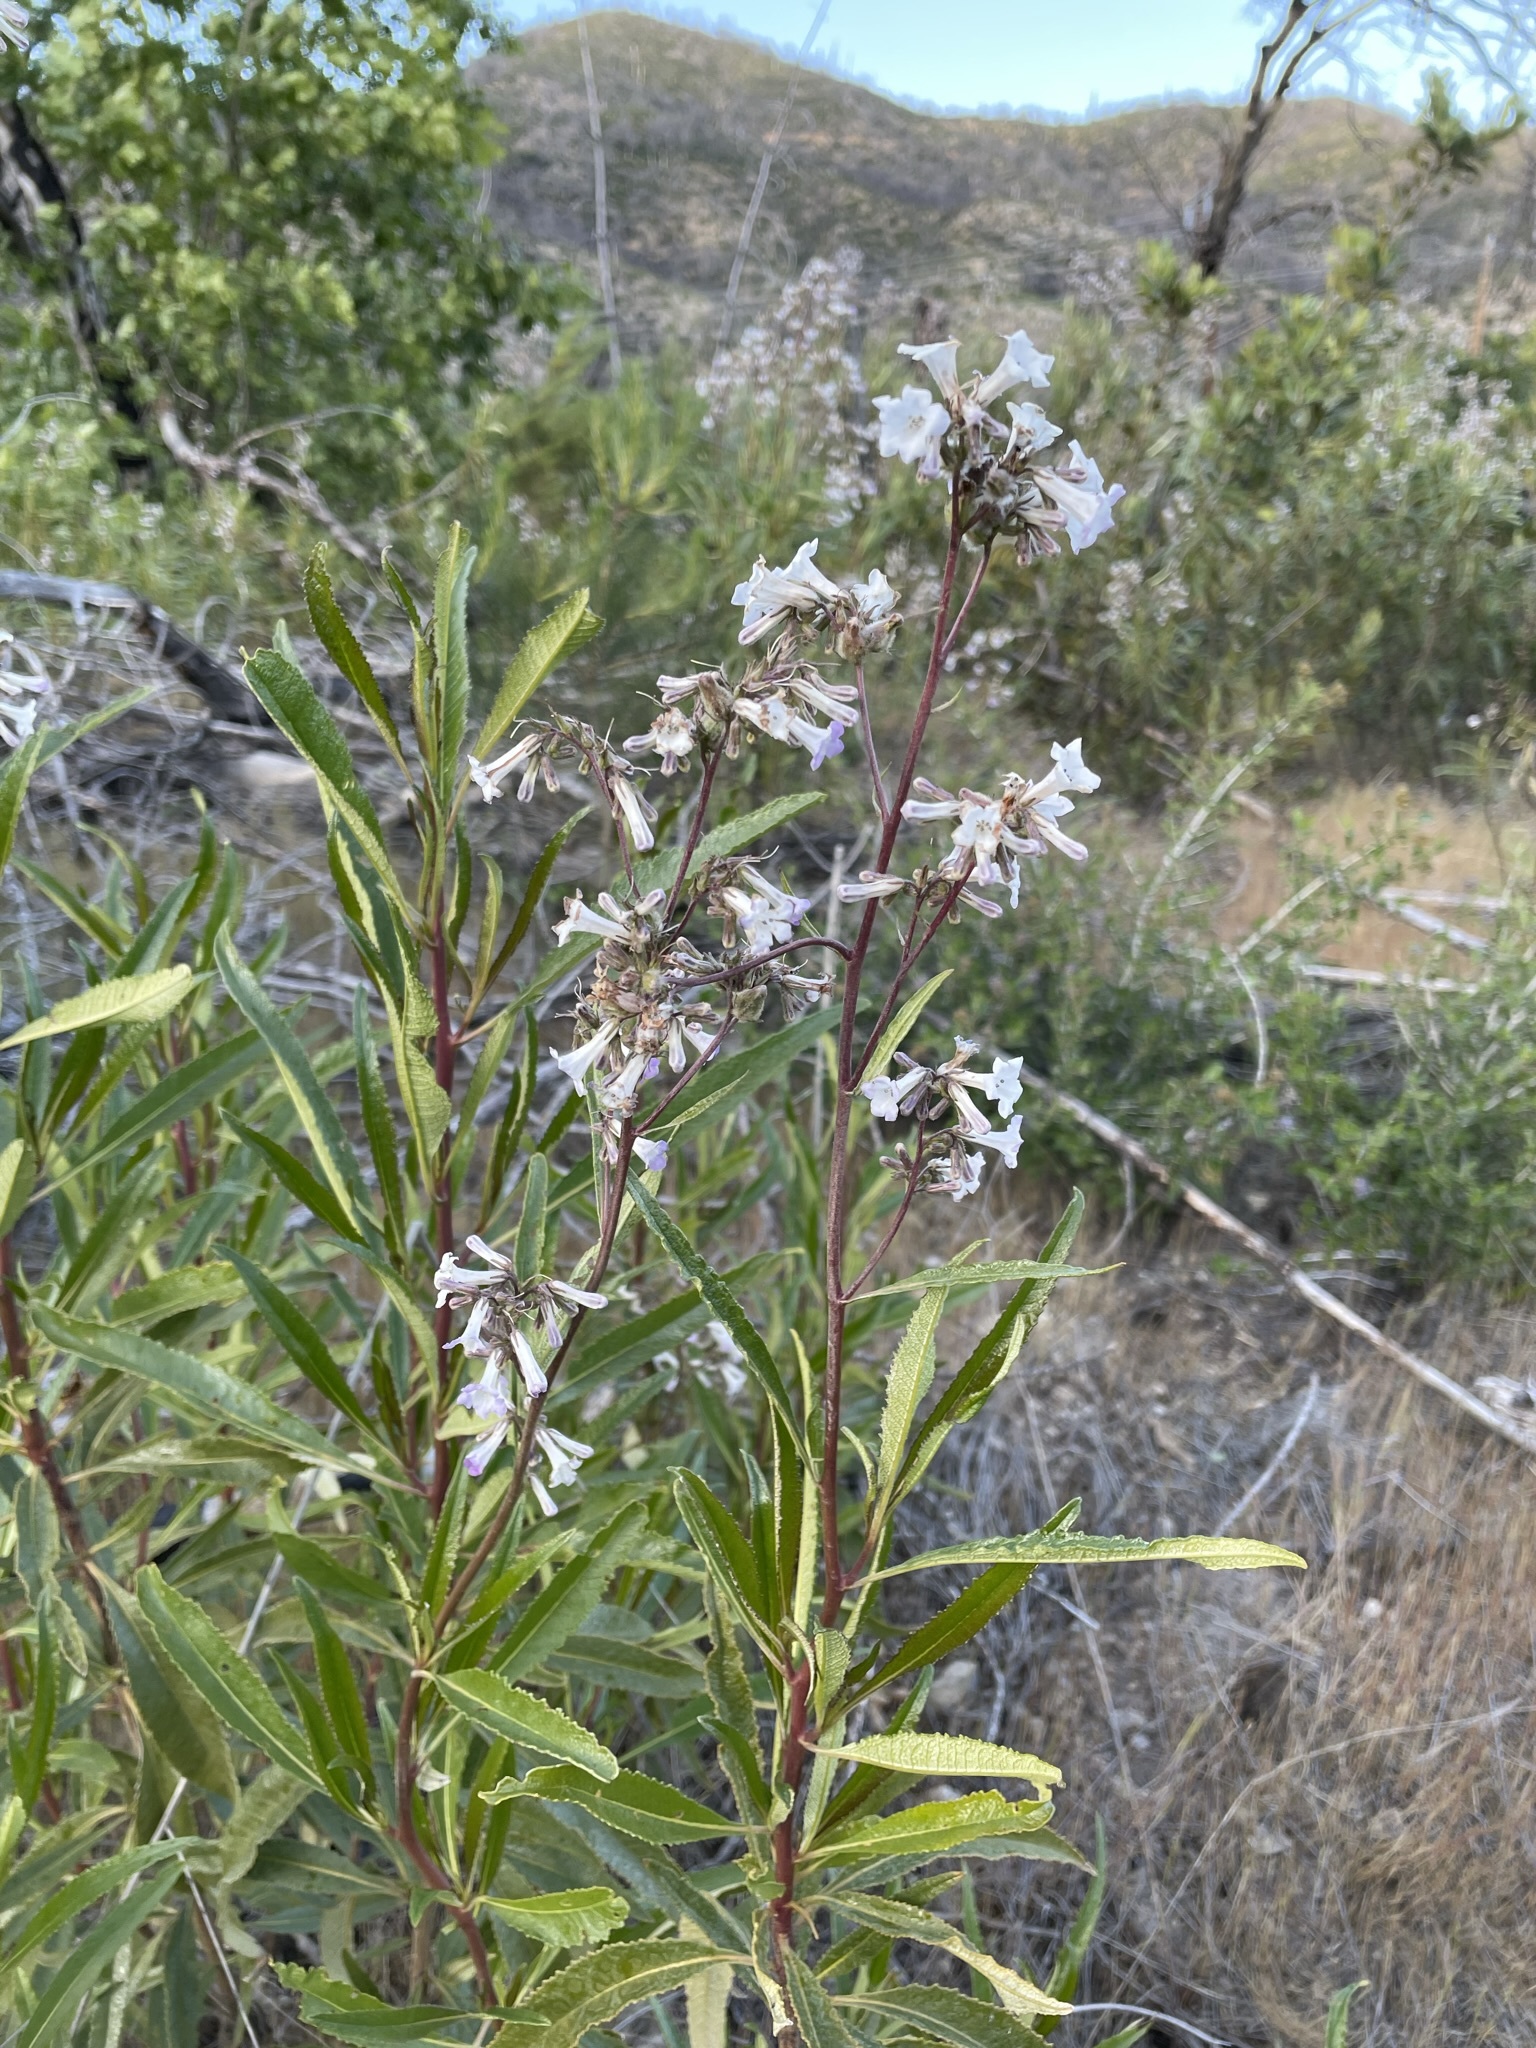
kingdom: Plantae
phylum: Tracheophyta
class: Magnoliopsida
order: Boraginales
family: Namaceae
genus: Eriodictyon
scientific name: Eriodictyon californicum
